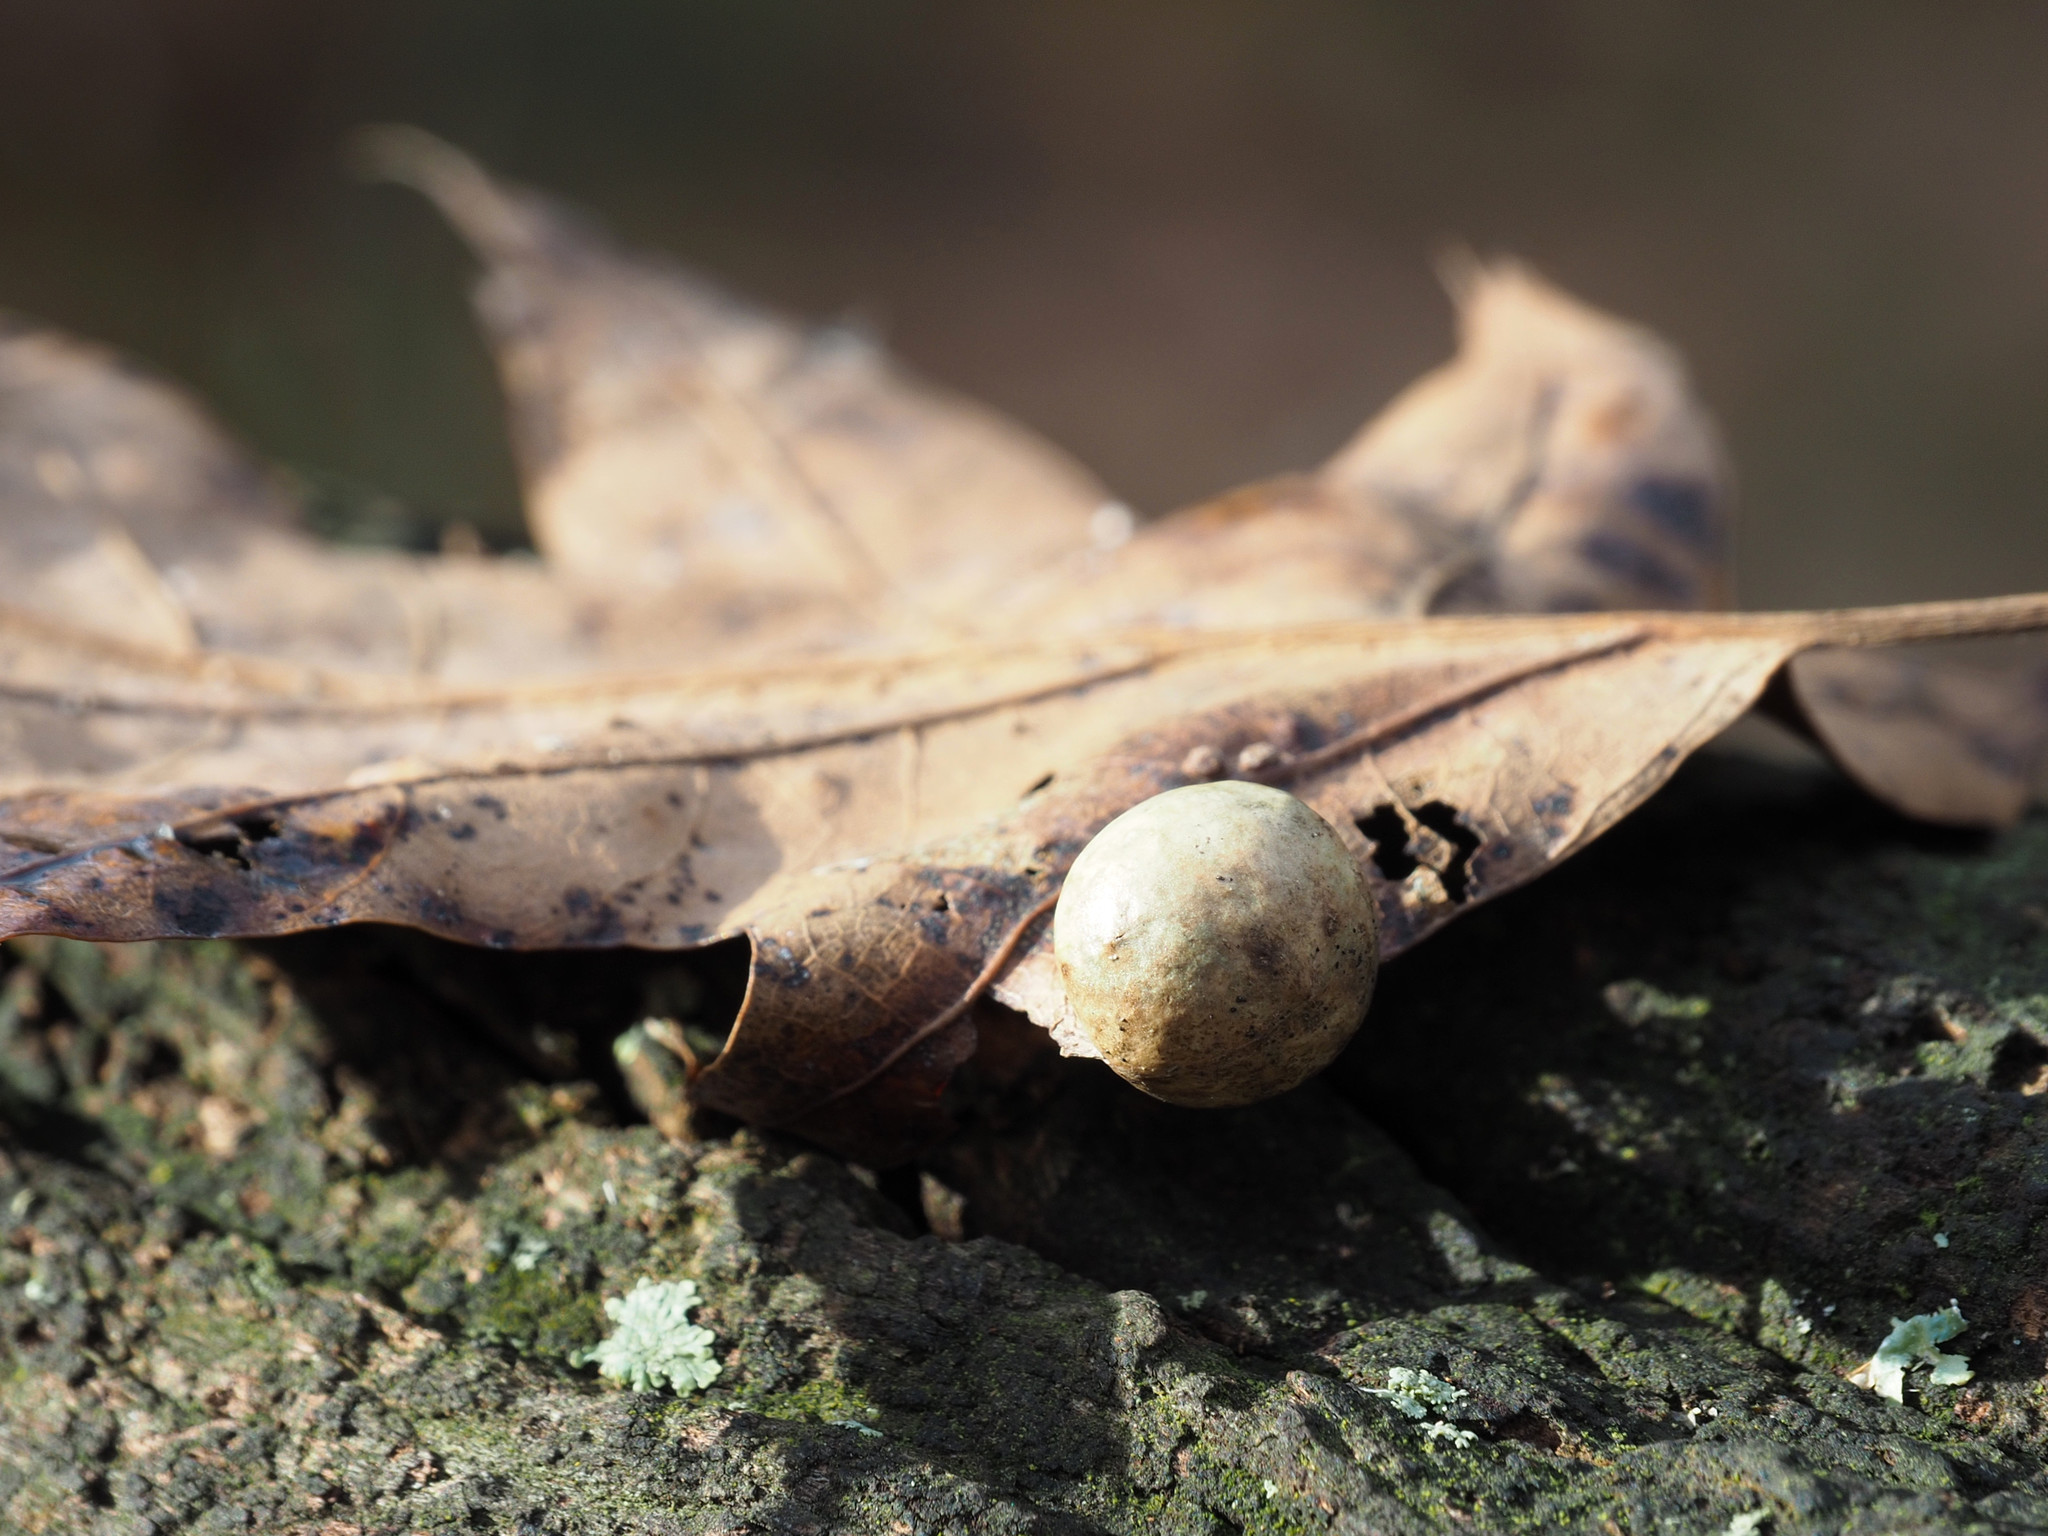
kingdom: Animalia
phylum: Arthropoda
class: Insecta
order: Hymenoptera
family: Cynipidae
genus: Amphibolips
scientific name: Amphibolips
